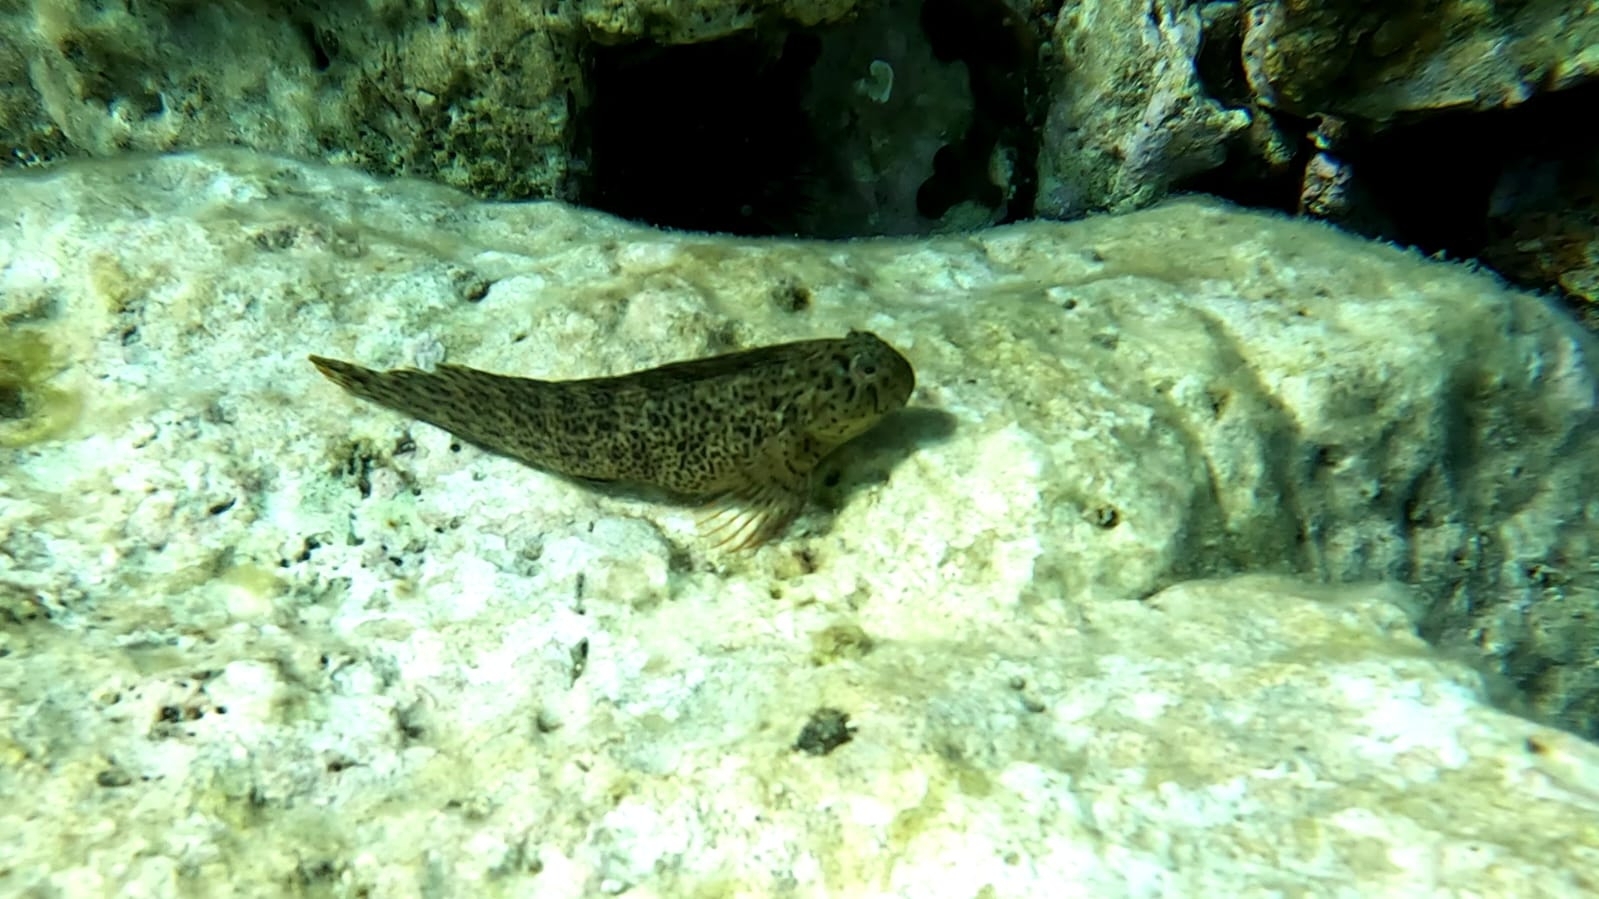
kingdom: Animalia
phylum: Chordata
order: Perciformes
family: Blenniidae
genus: Parablennius
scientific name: Parablennius sanguinolentus
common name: Black sea blenny
